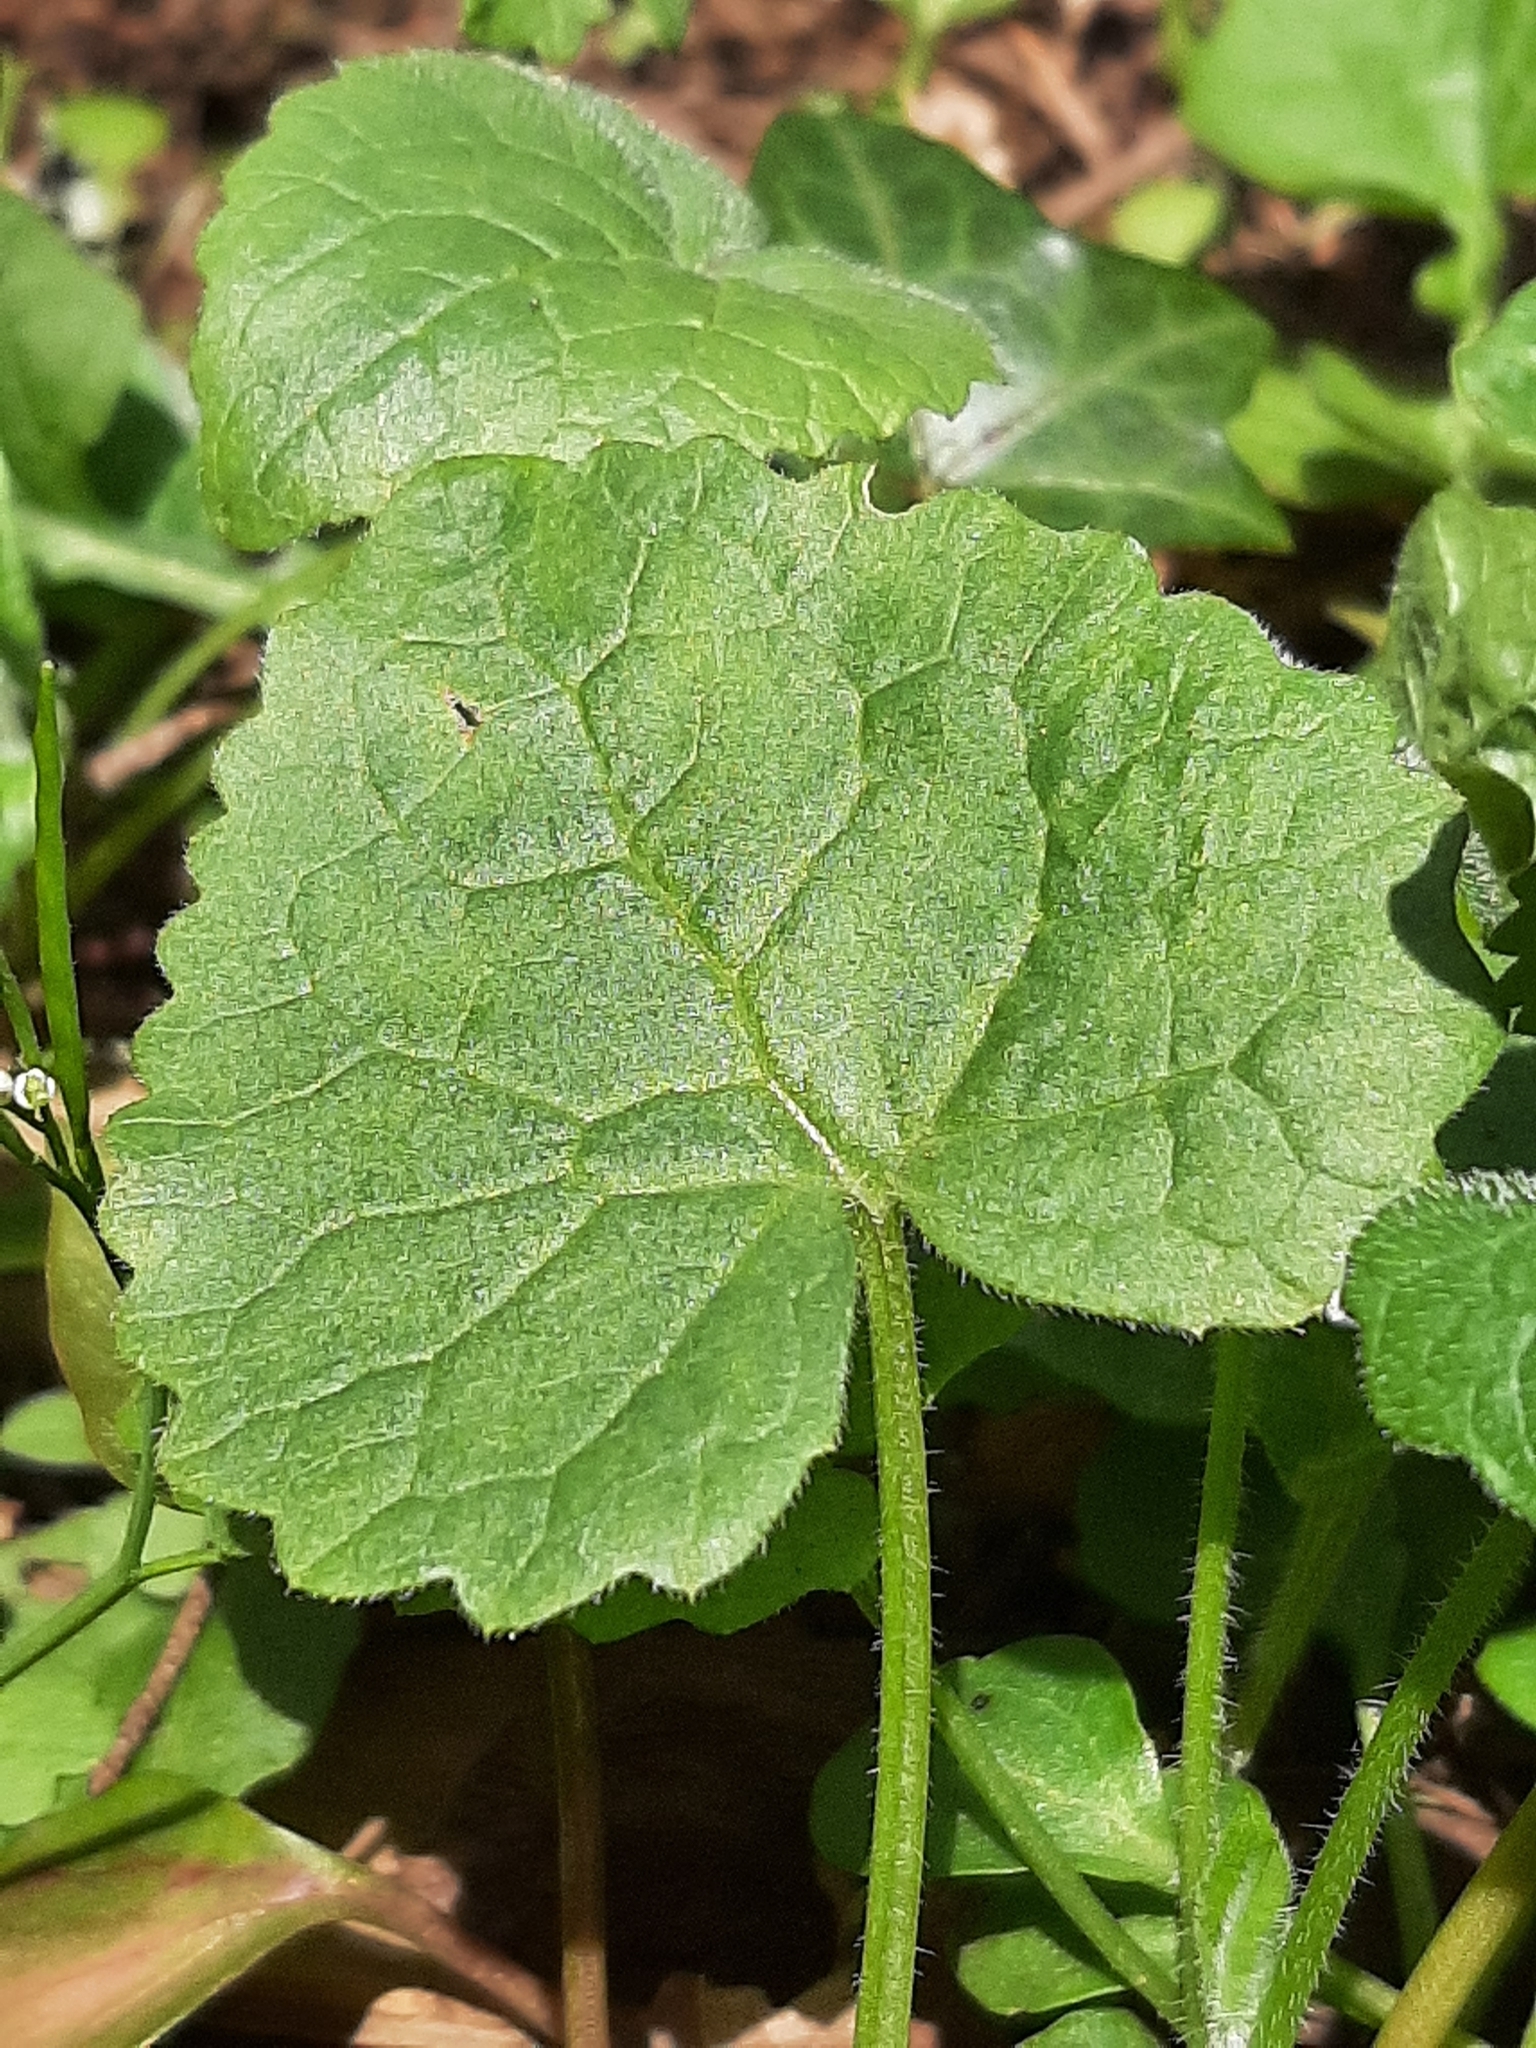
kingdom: Plantae
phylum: Tracheophyta
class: Magnoliopsida
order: Brassicales
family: Brassicaceae
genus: Lunaria
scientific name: Lunaria annua
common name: Honesty
